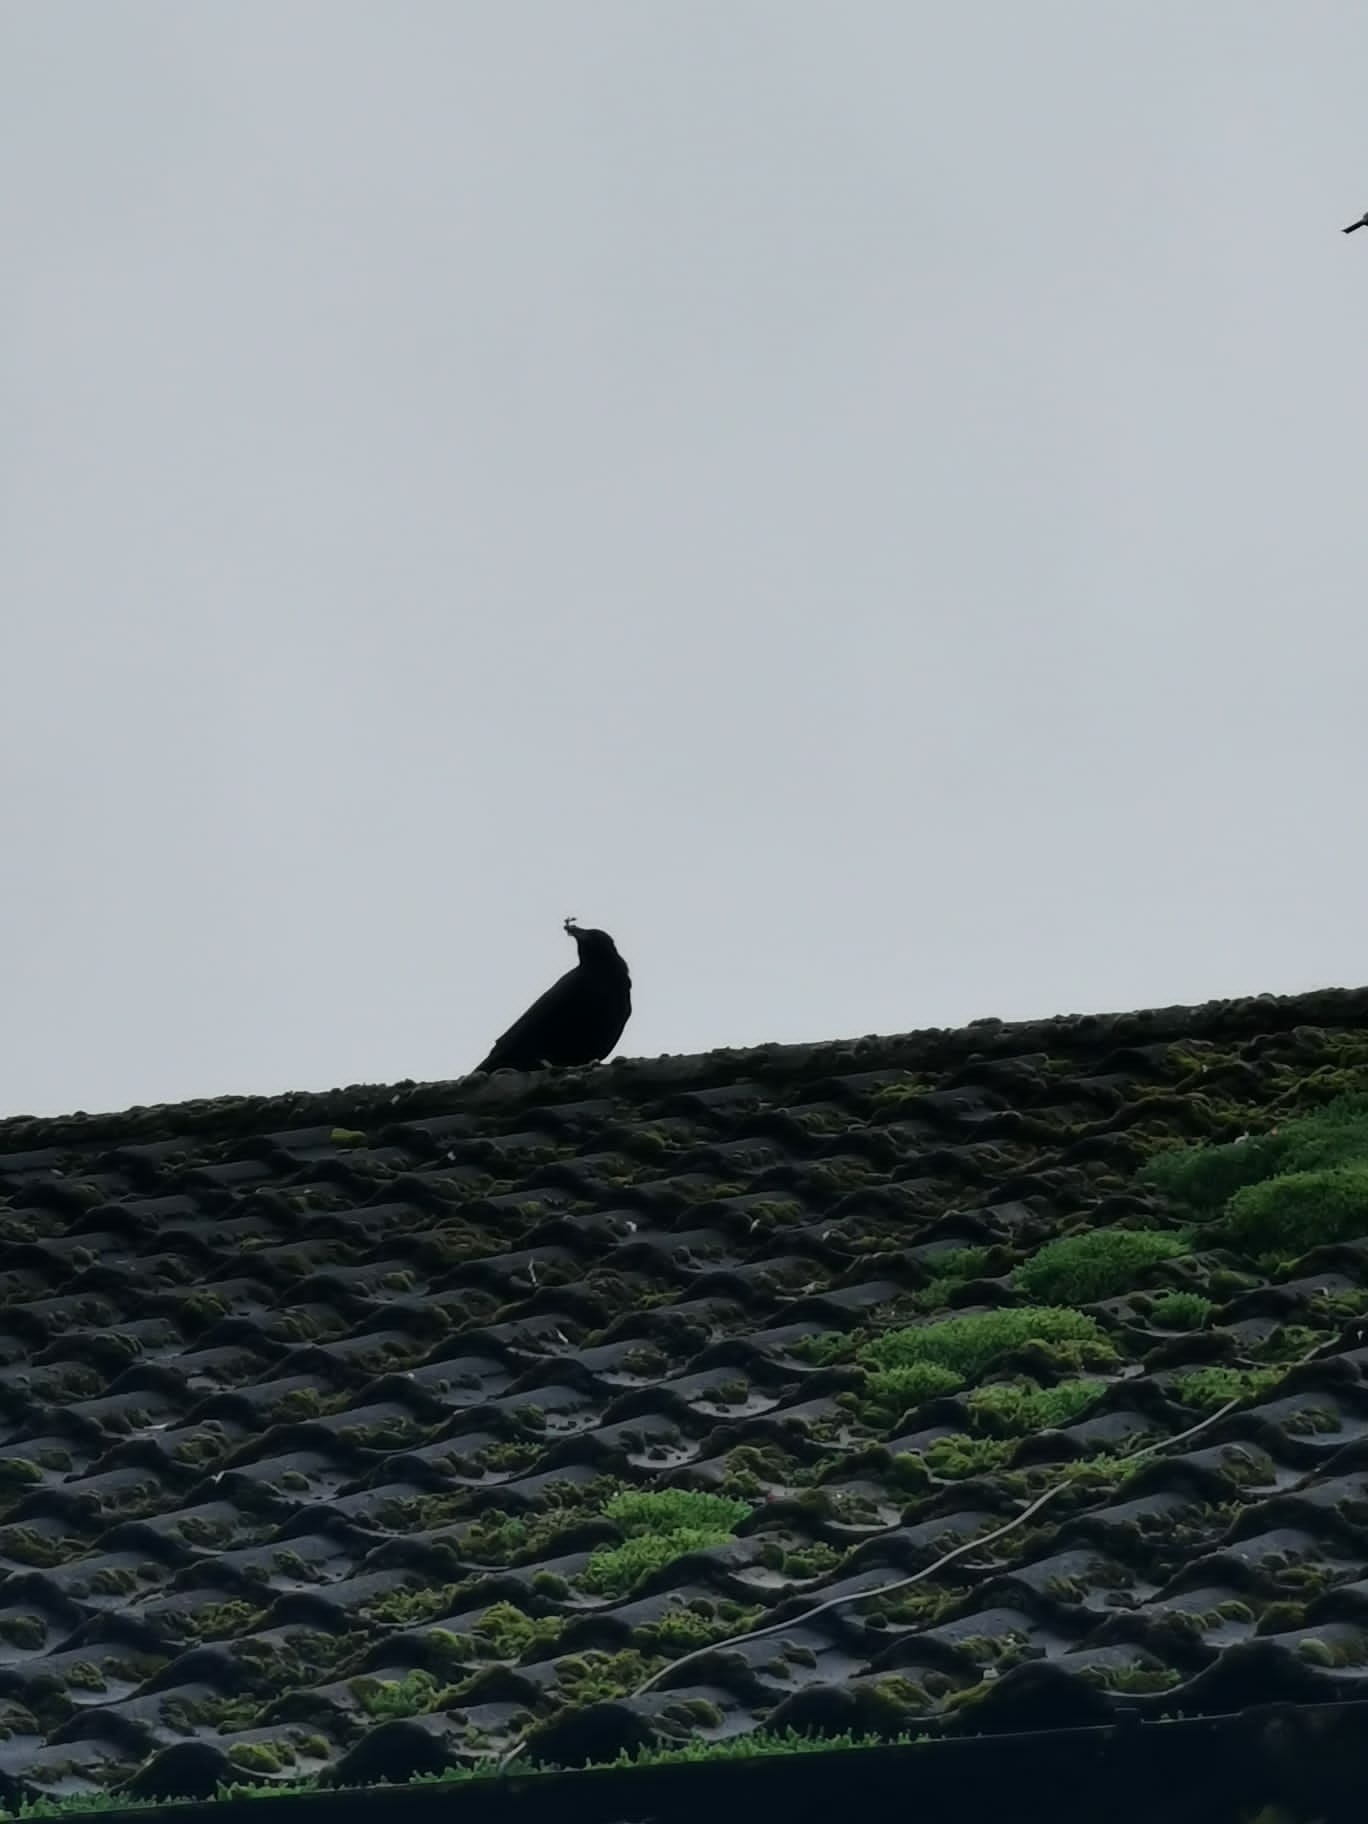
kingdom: Animalia
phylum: Chordata
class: Aves
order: Passeriformes
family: Corvidae
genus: Corvus
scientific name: Corvus corone
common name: Carrion crow
